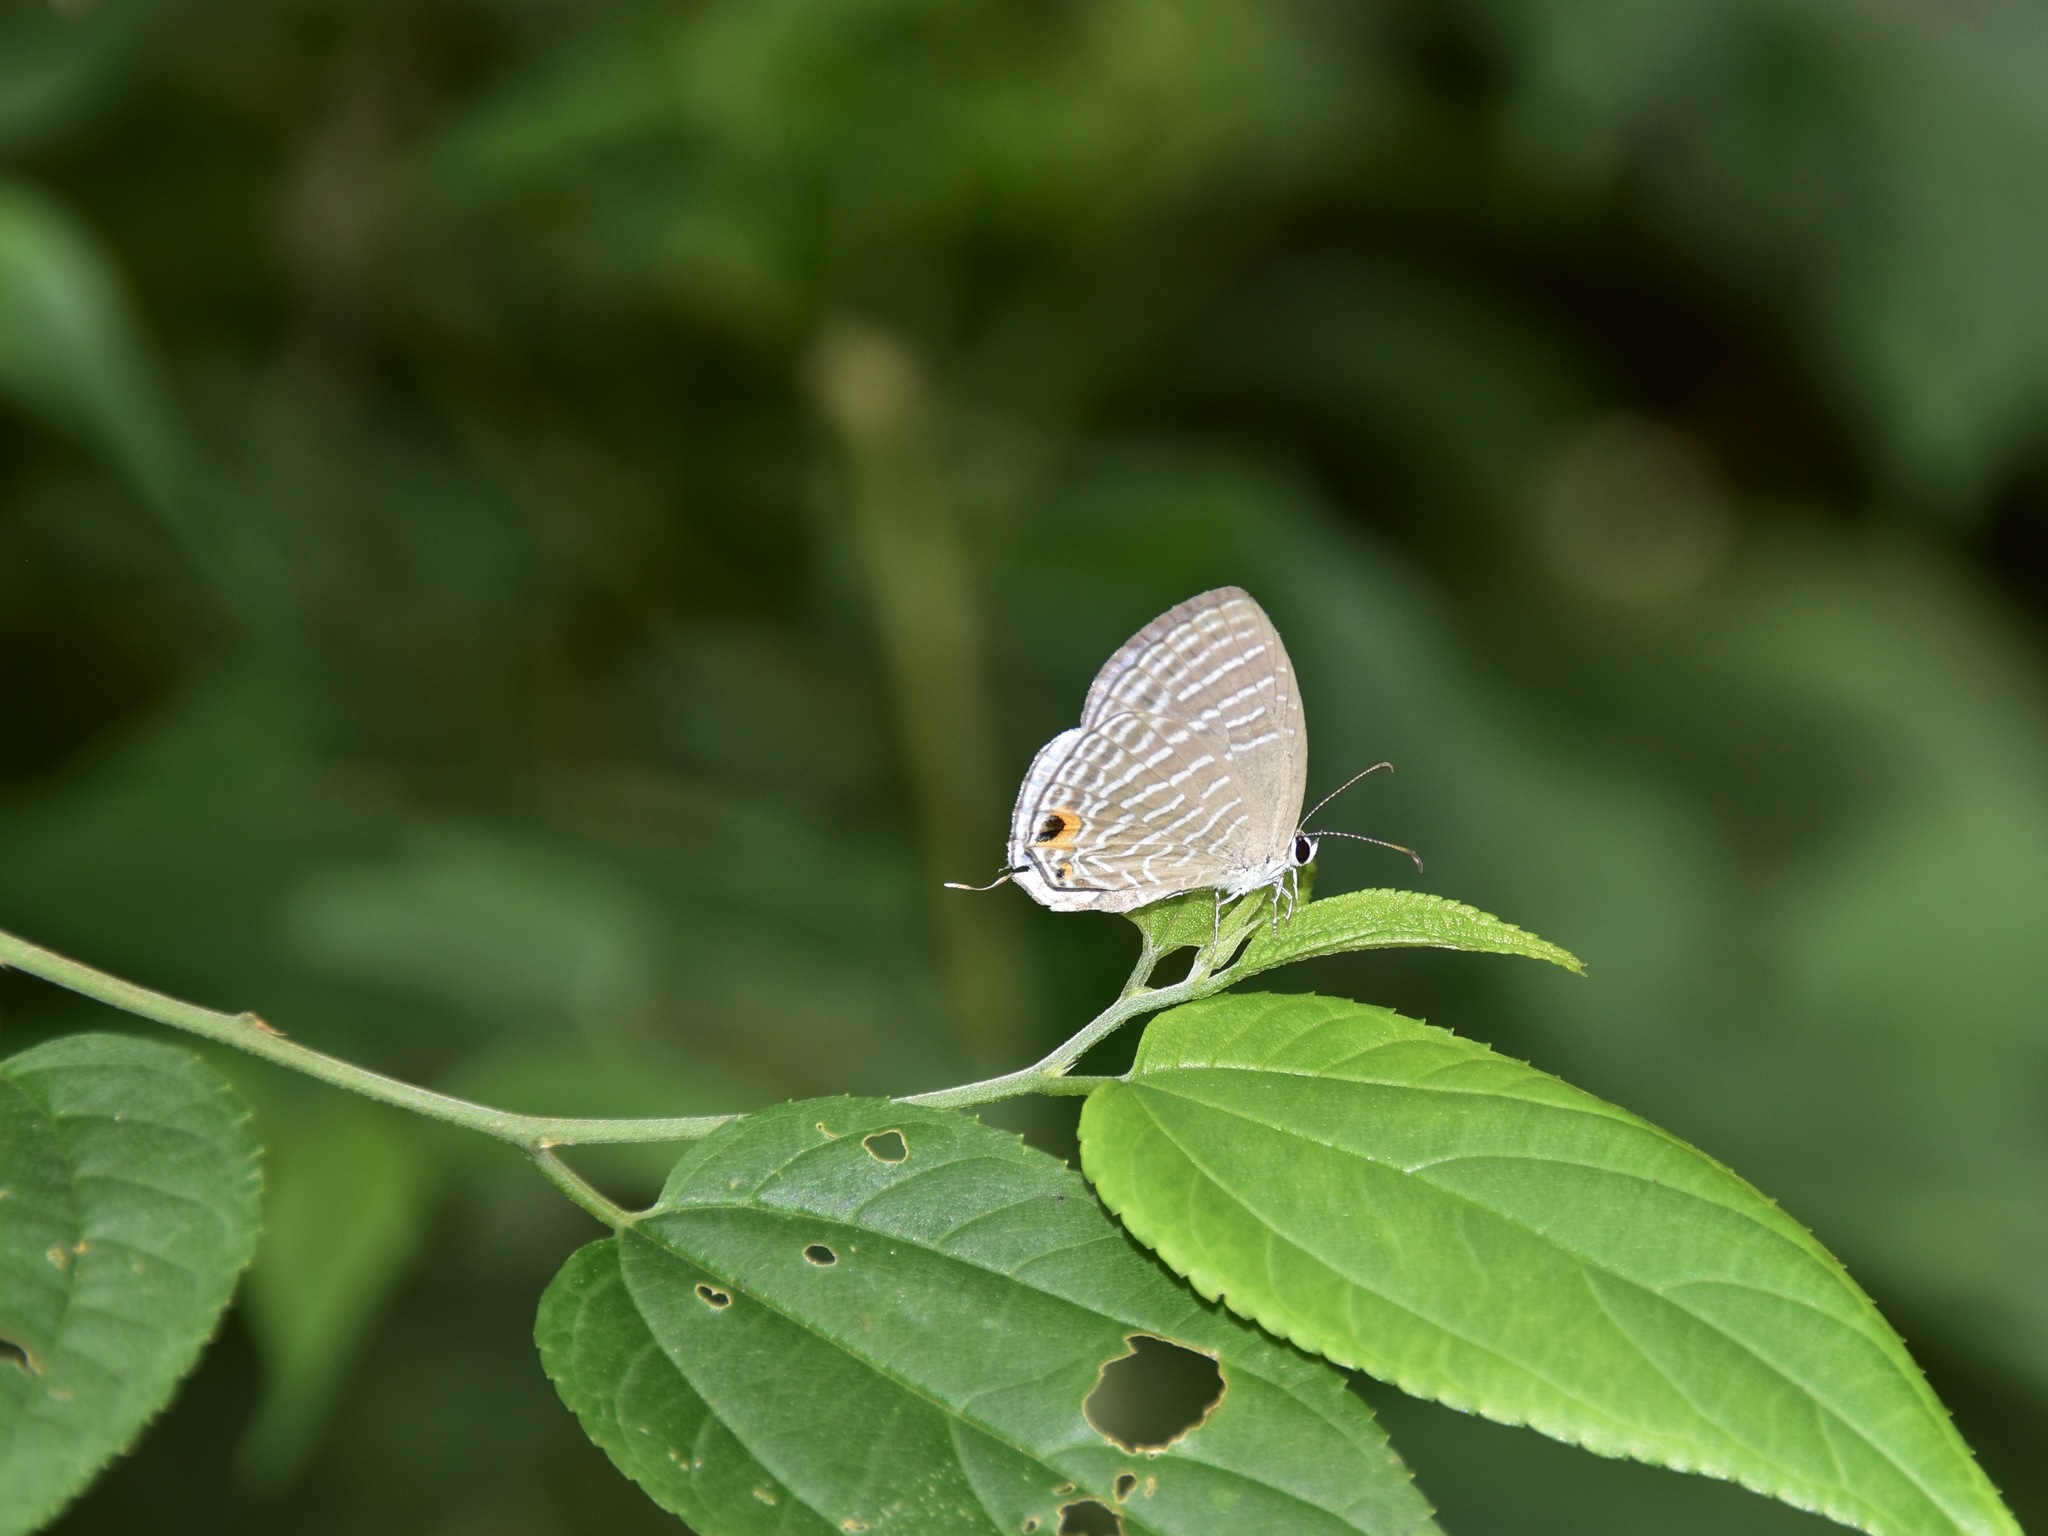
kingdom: Animalia
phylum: Arthropoda
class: Insecta
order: Lepidoptera
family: Lycaenidae
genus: Jamides
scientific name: Jamides celeno
